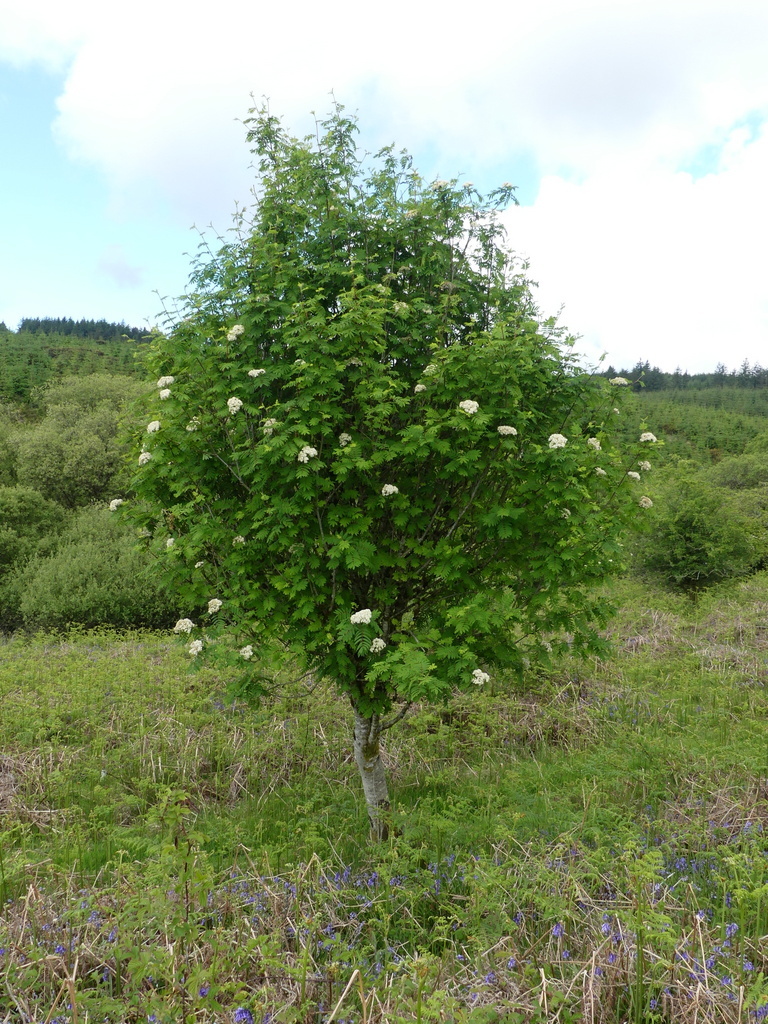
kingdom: Plantae
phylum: Tracheophyta
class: Magnoliopsida
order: Rosales
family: Rosaceae
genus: Sorbus
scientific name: Sorbus aucuparia
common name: Rowan
